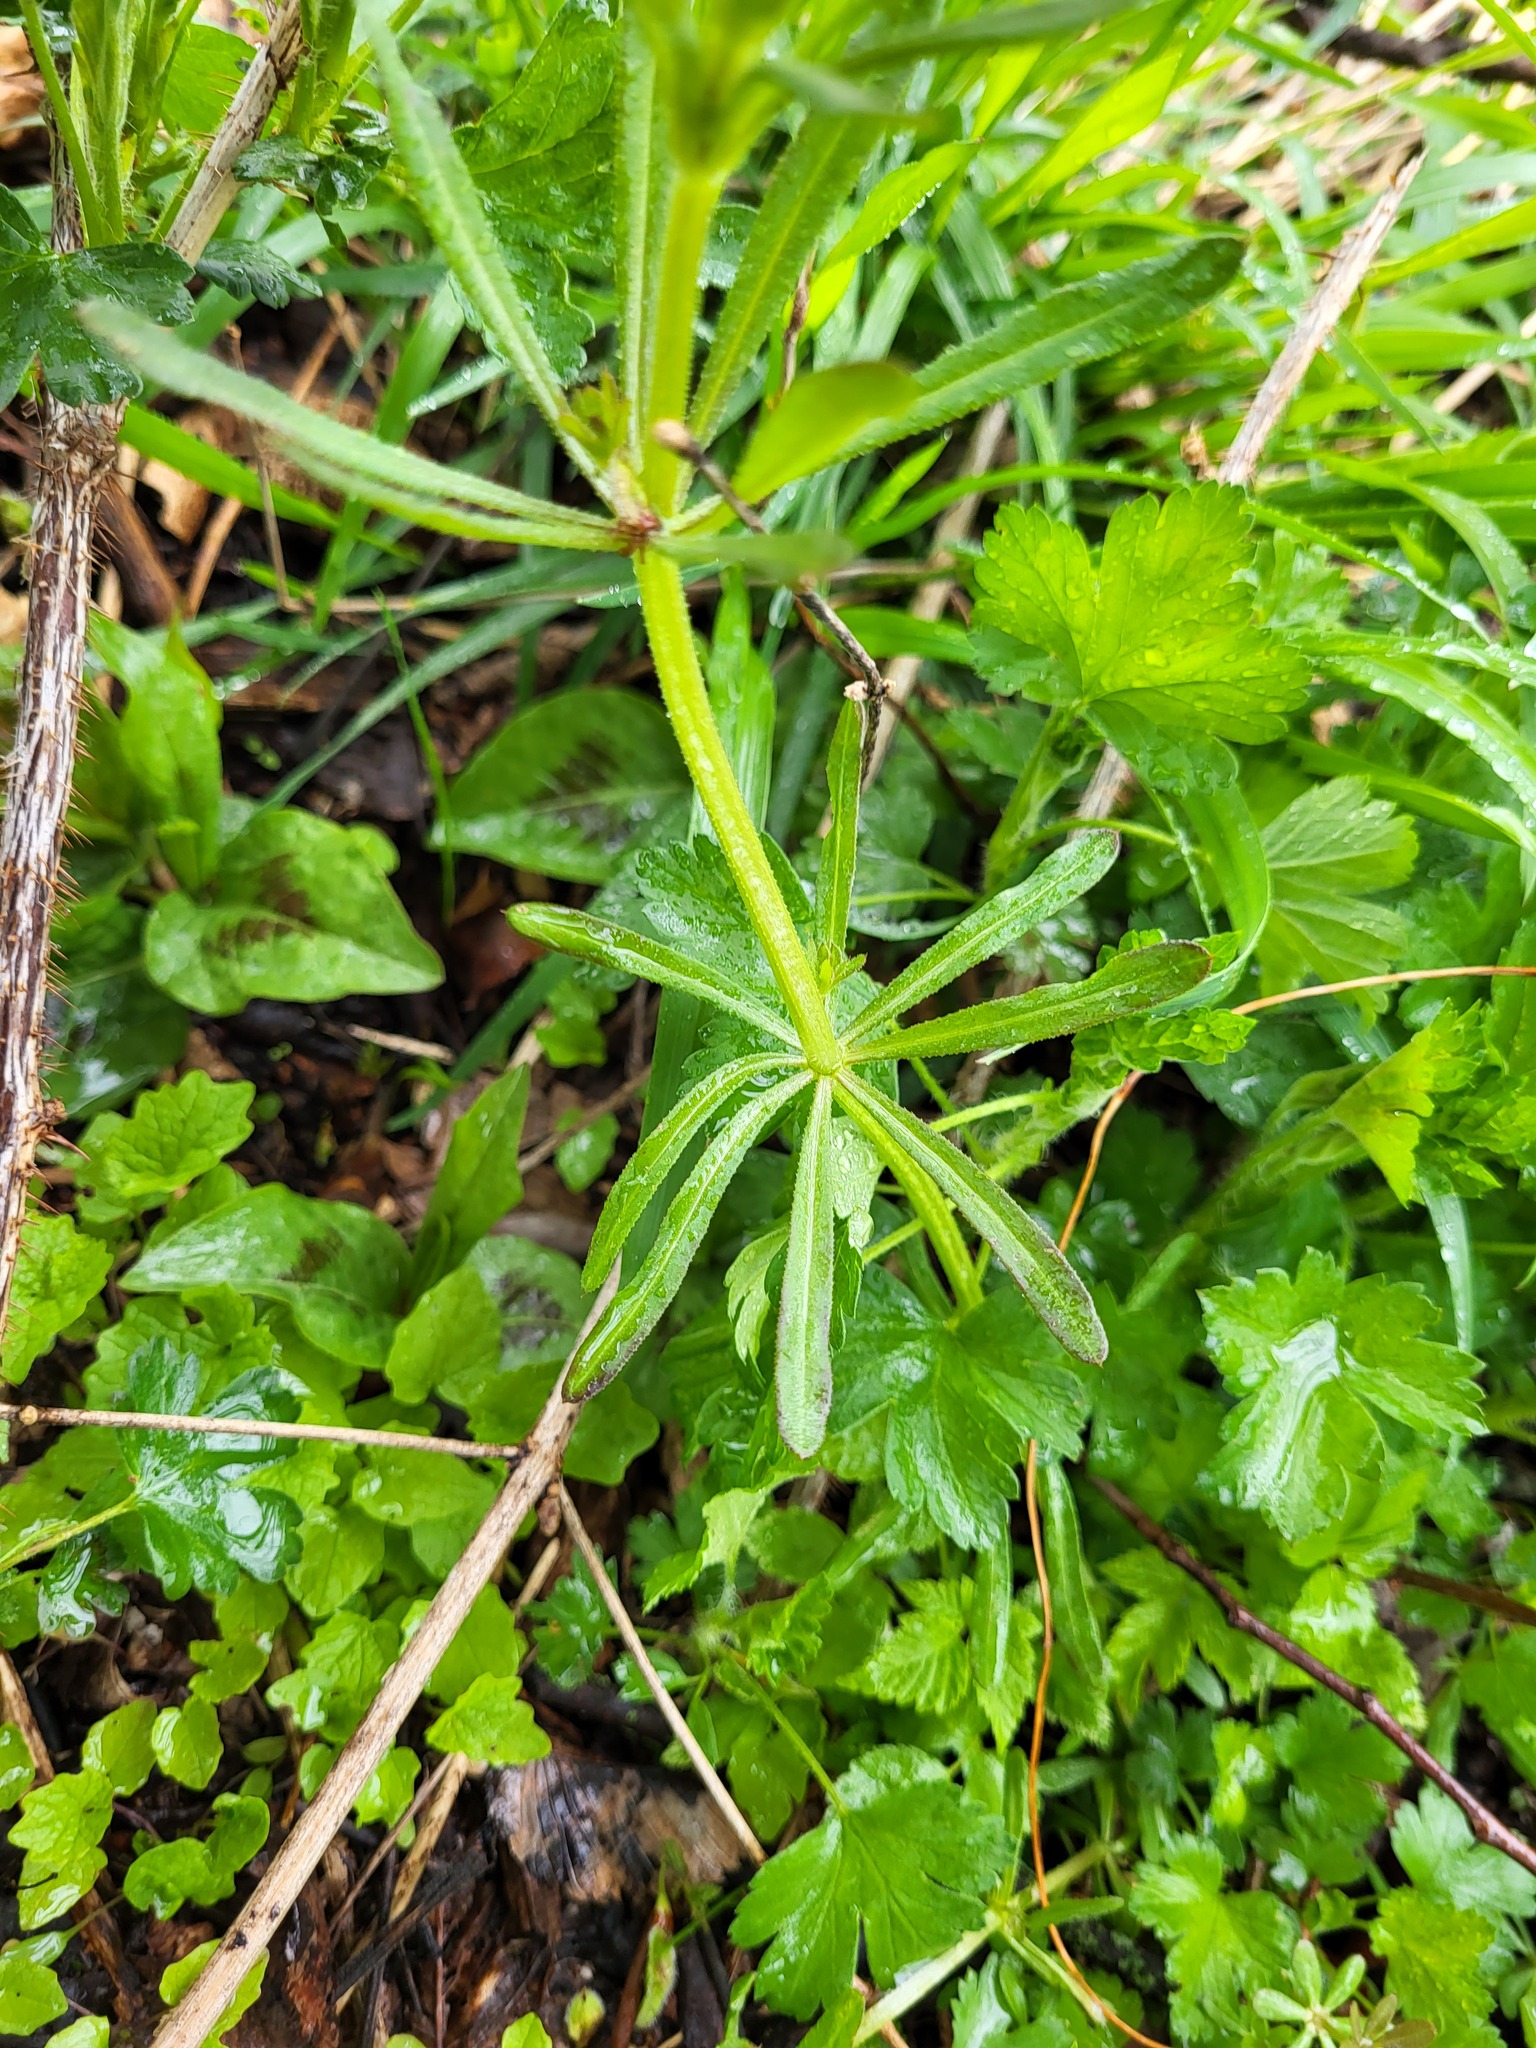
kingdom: Plantae
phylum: Tracheophyta
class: Magnoliopsida
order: Gentianales
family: Rubiaceae
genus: Galium
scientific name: Galium aparine
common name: Cleavers
